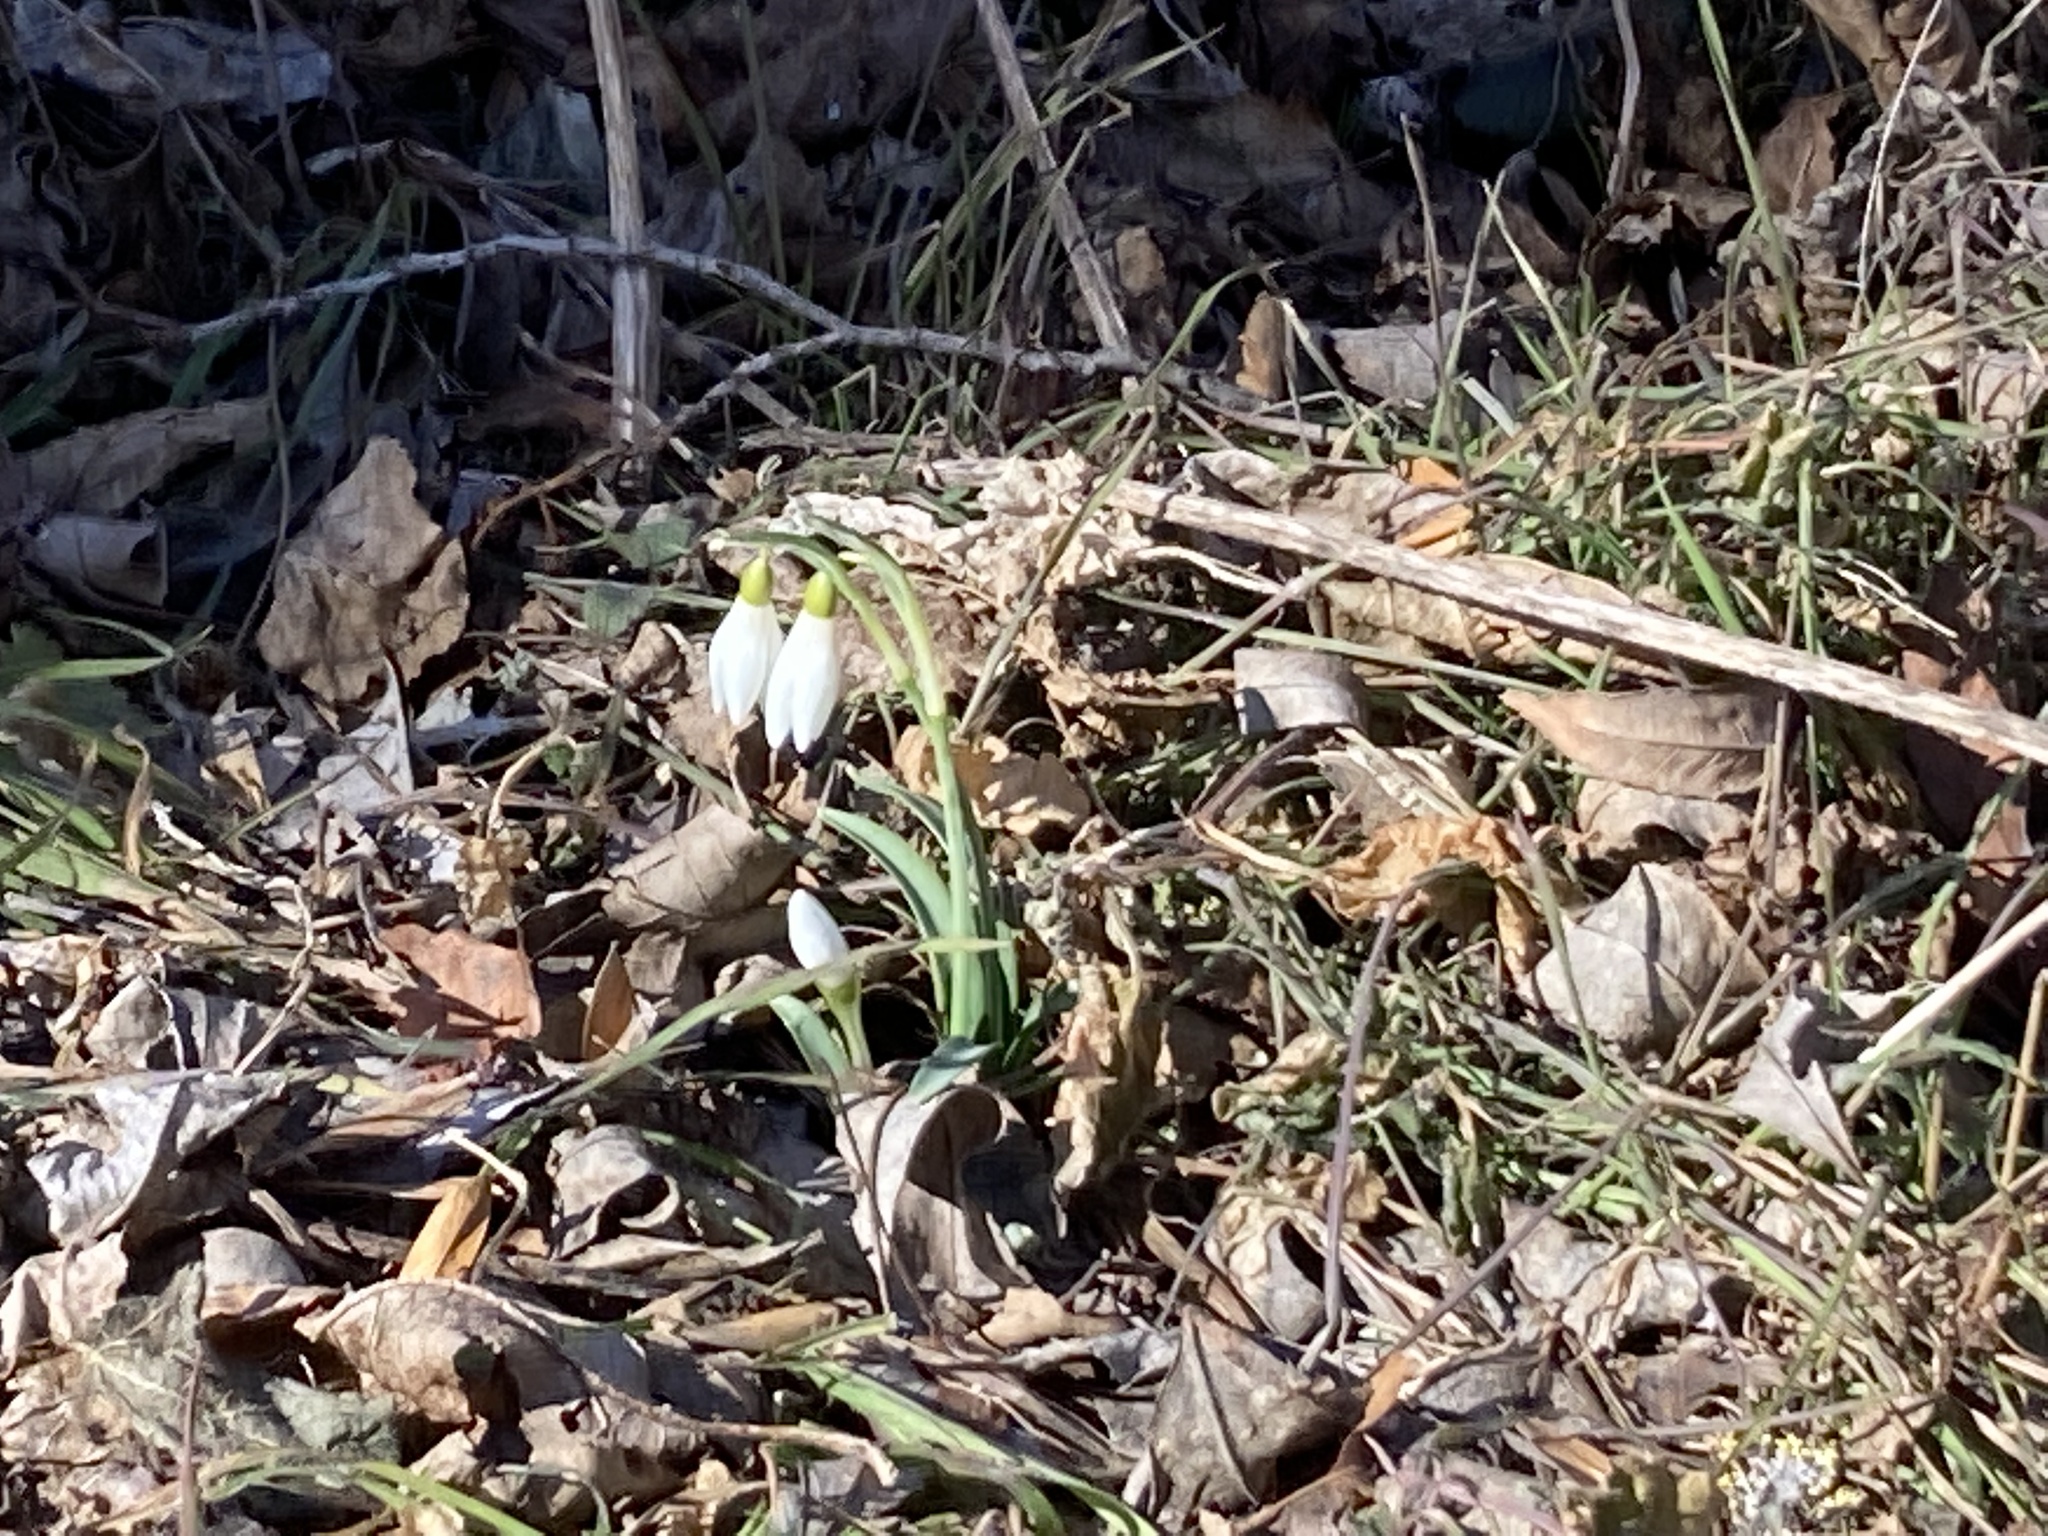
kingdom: Plantae
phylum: Tracheophyta
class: Liliopsida
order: Asparagales
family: Amaryllidaceae
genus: Galanthus
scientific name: Galanthus nivalis
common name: Snowdrop
